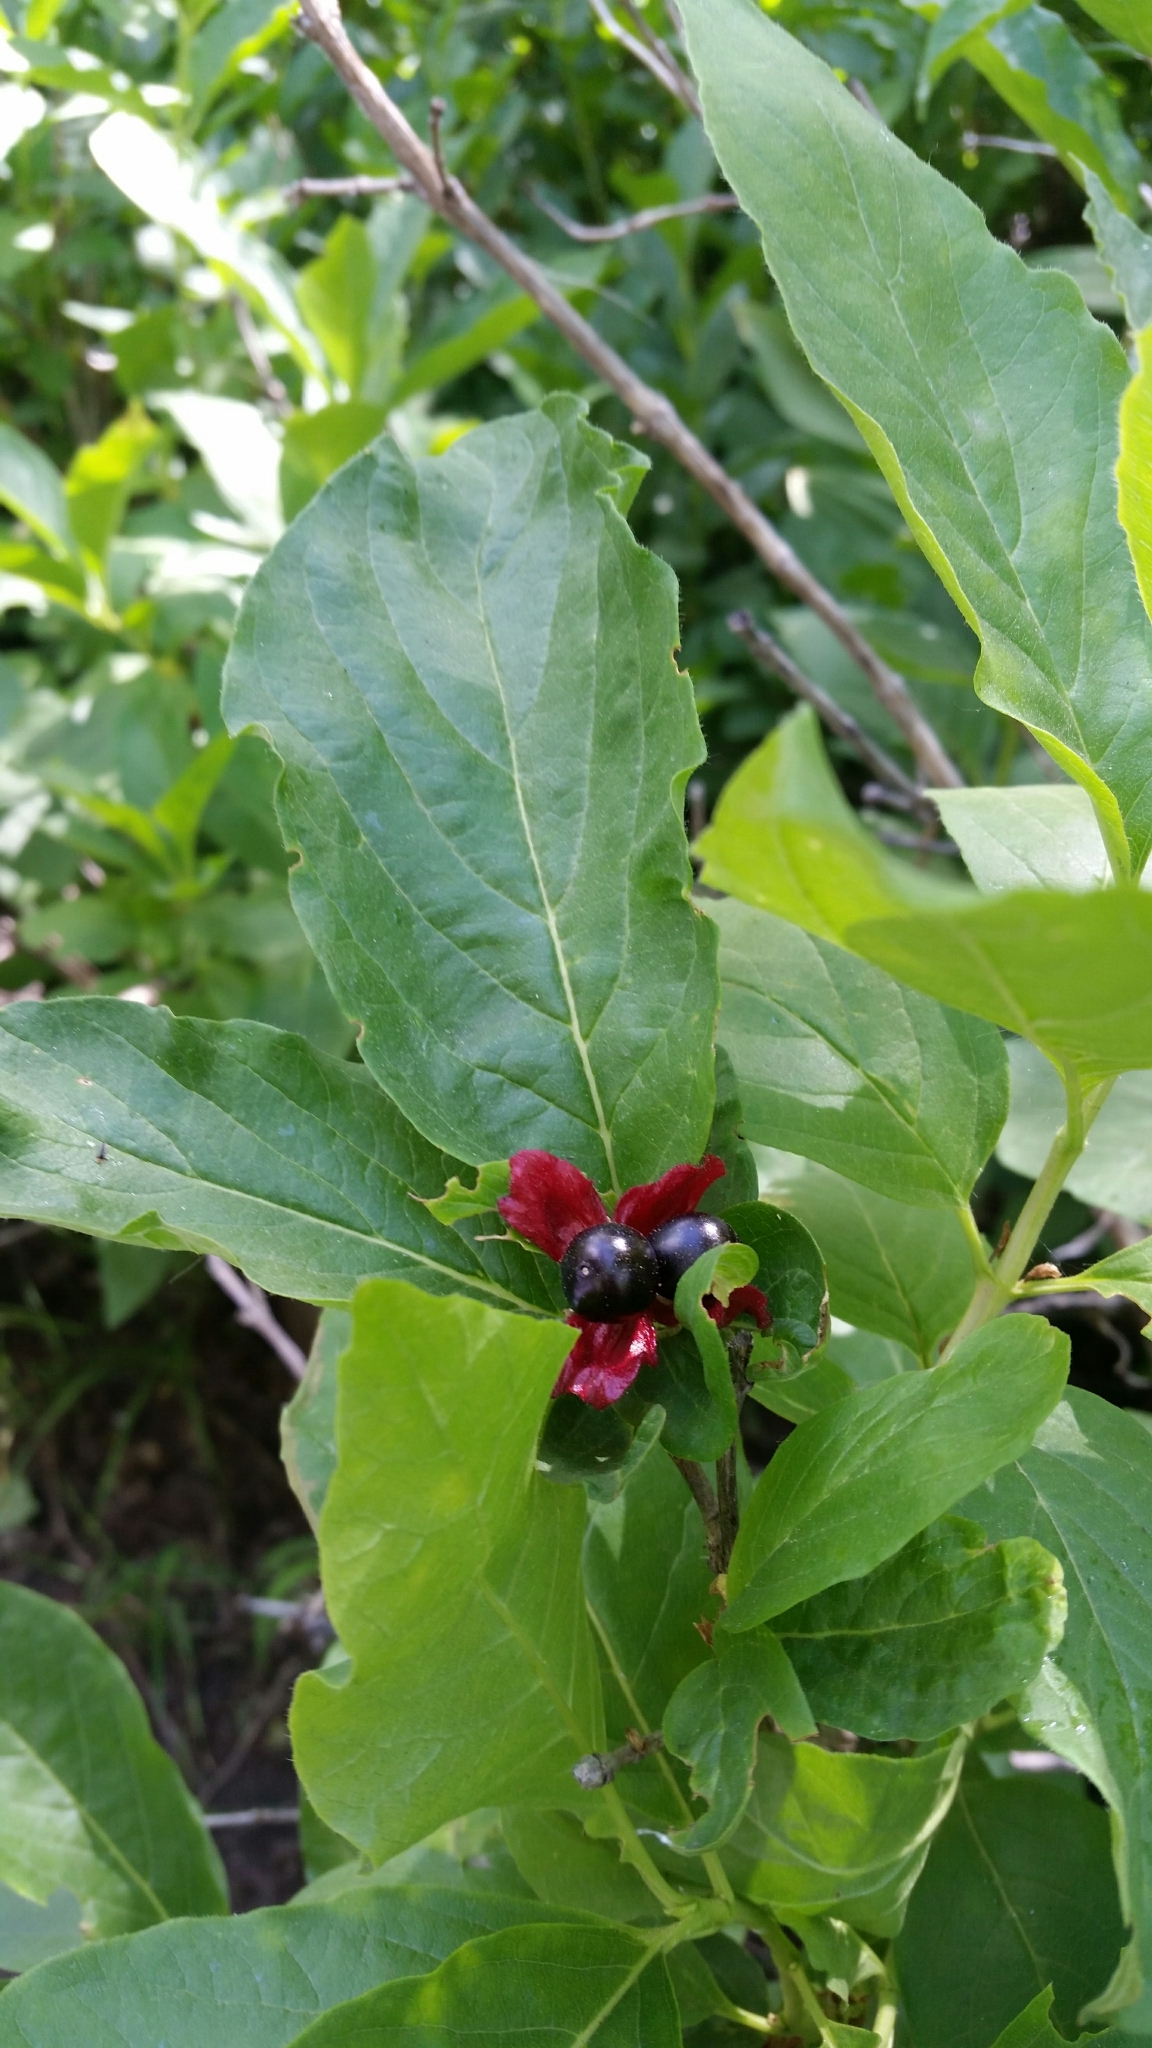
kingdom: Plantae
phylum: Tracheophyta
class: Magnoliopsida
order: Dipsacales
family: Caprifoliaceae
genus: Lonicera
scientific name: Lonicera involucrata
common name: Californian honeysuckle
